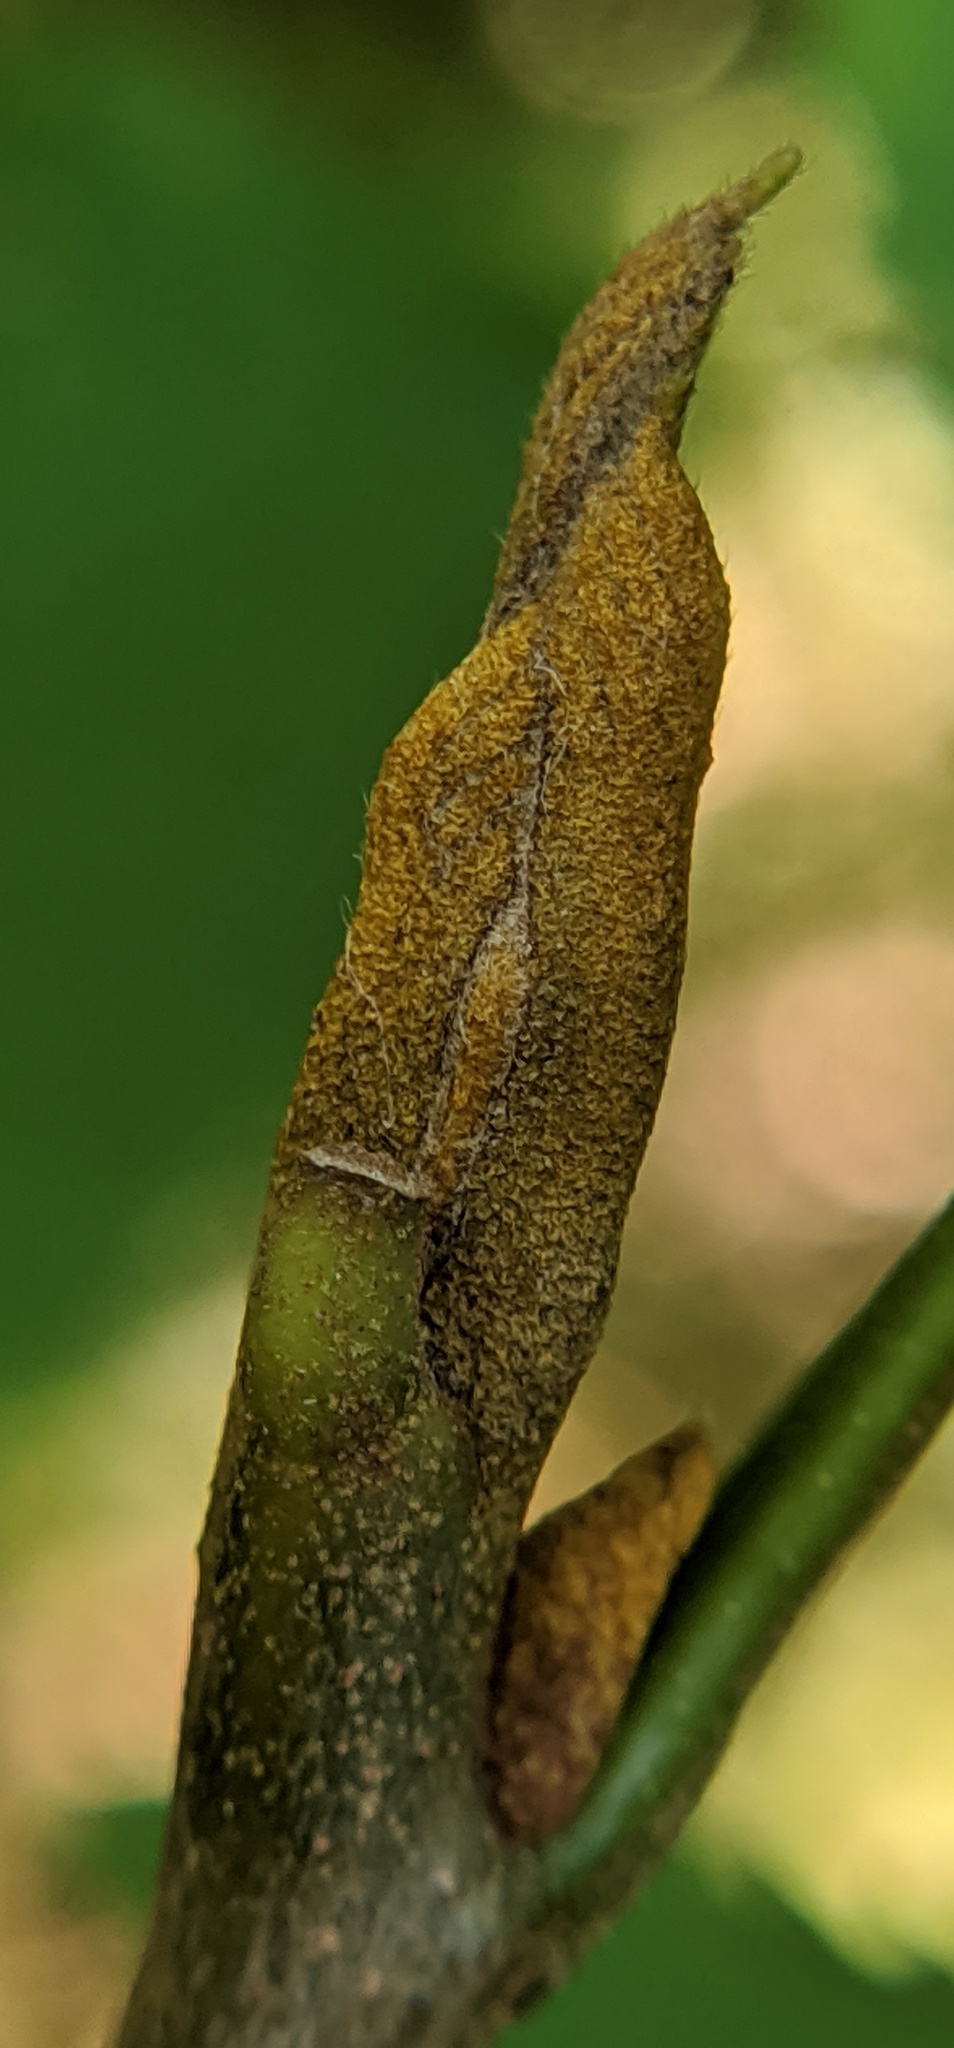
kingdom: Plantae
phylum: Tracheophyta
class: Magnoliopsida
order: Fagales
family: Juglandaceae
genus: Carya
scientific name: Carya cordiformis
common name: Bitternut hickory
